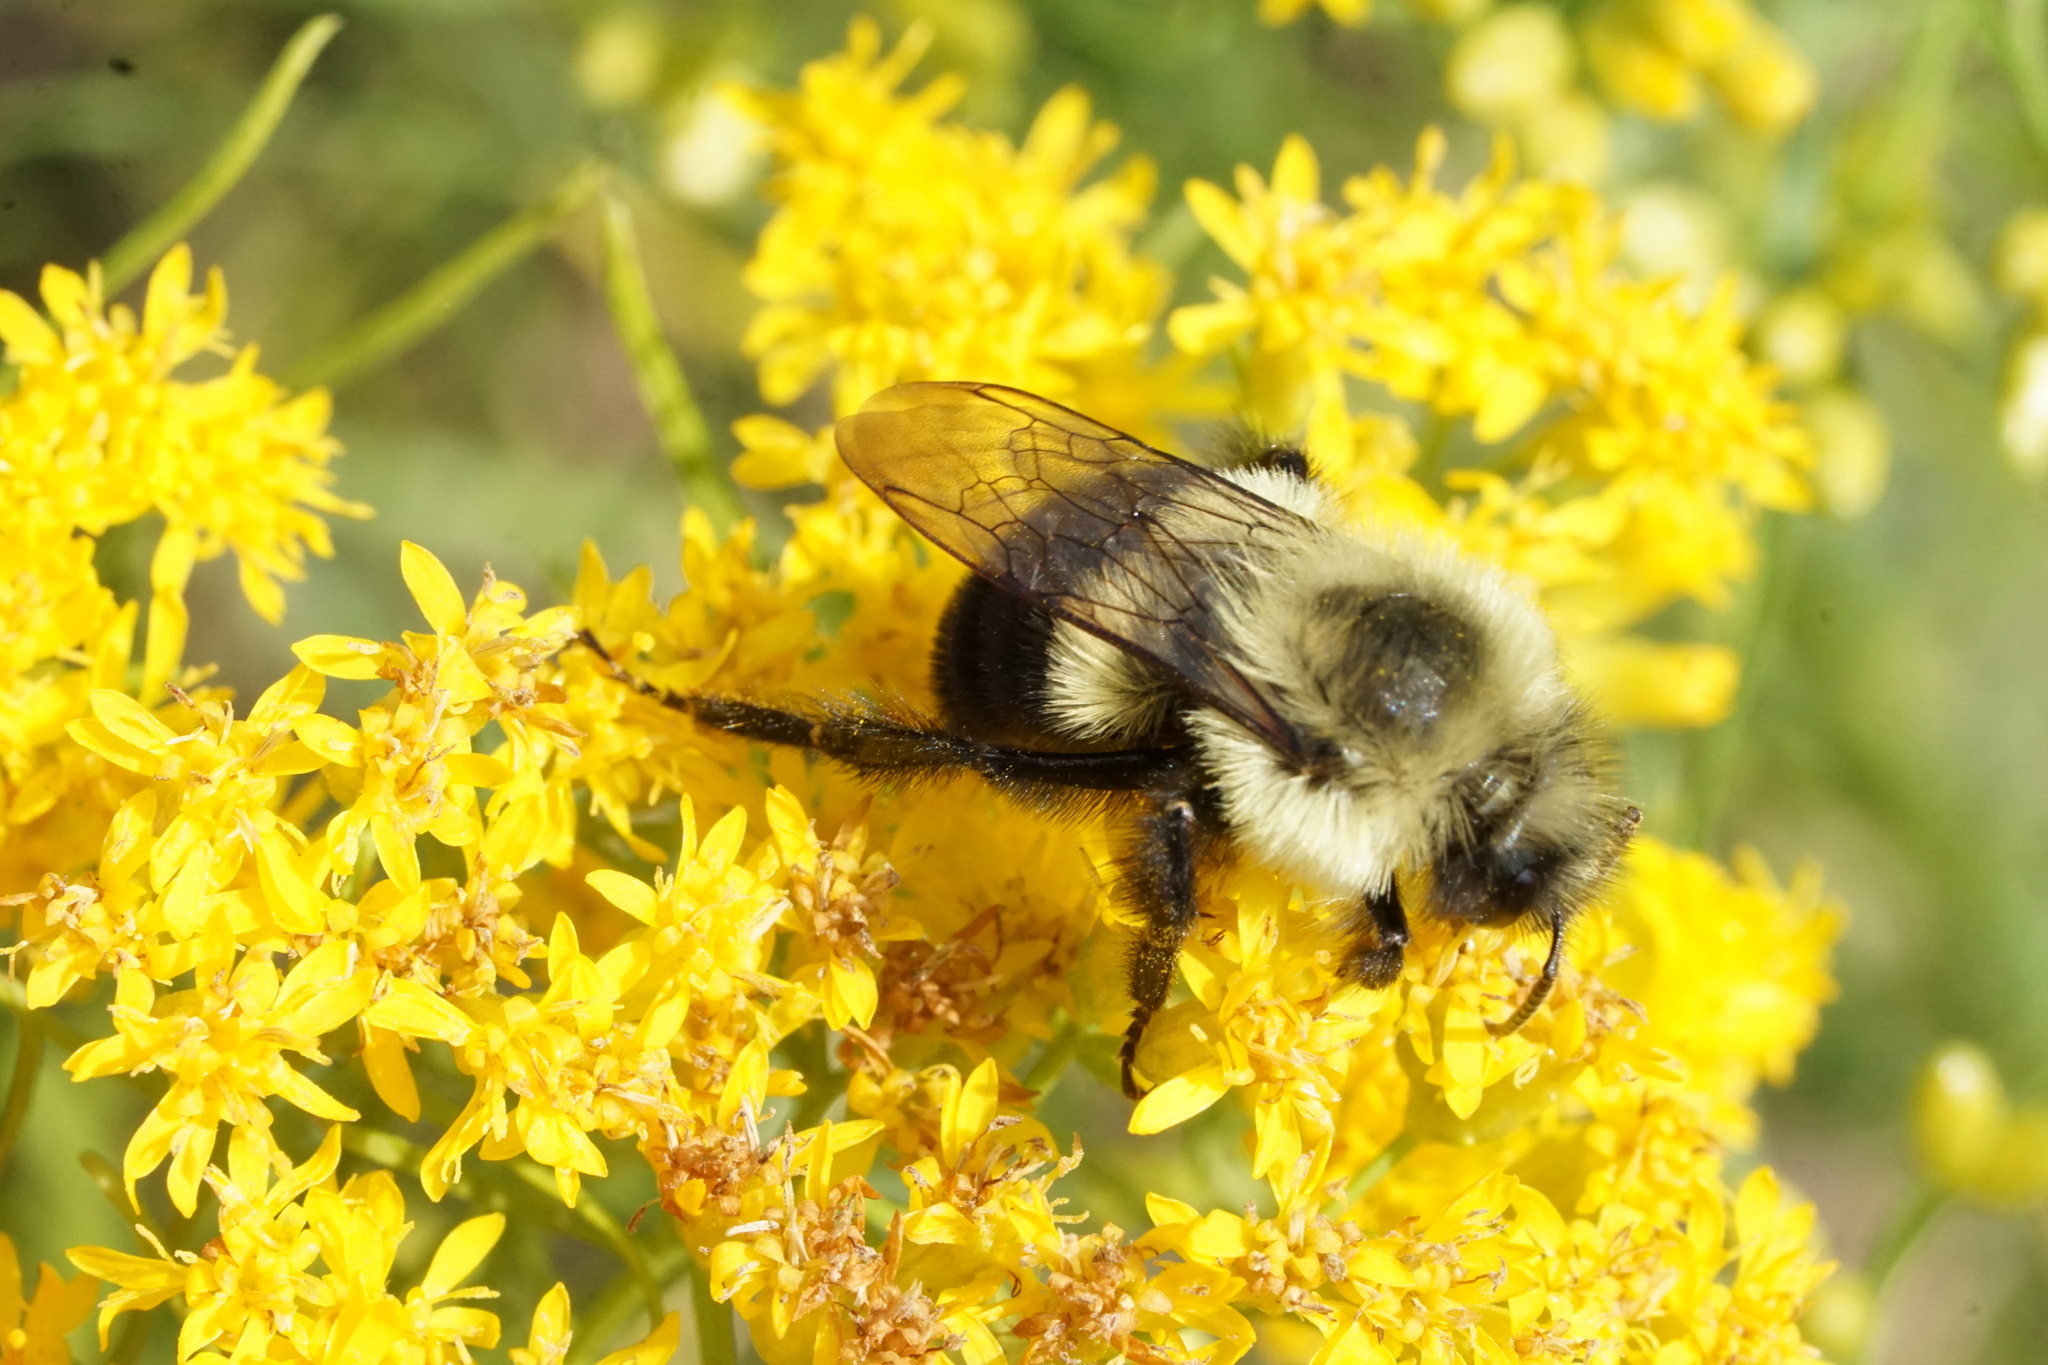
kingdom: Animalia
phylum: Arthropoda
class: Insecta
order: Hymenoptera
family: Apidae
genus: Bombus
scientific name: Bombus impatiens
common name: Common eastern bumble bee
